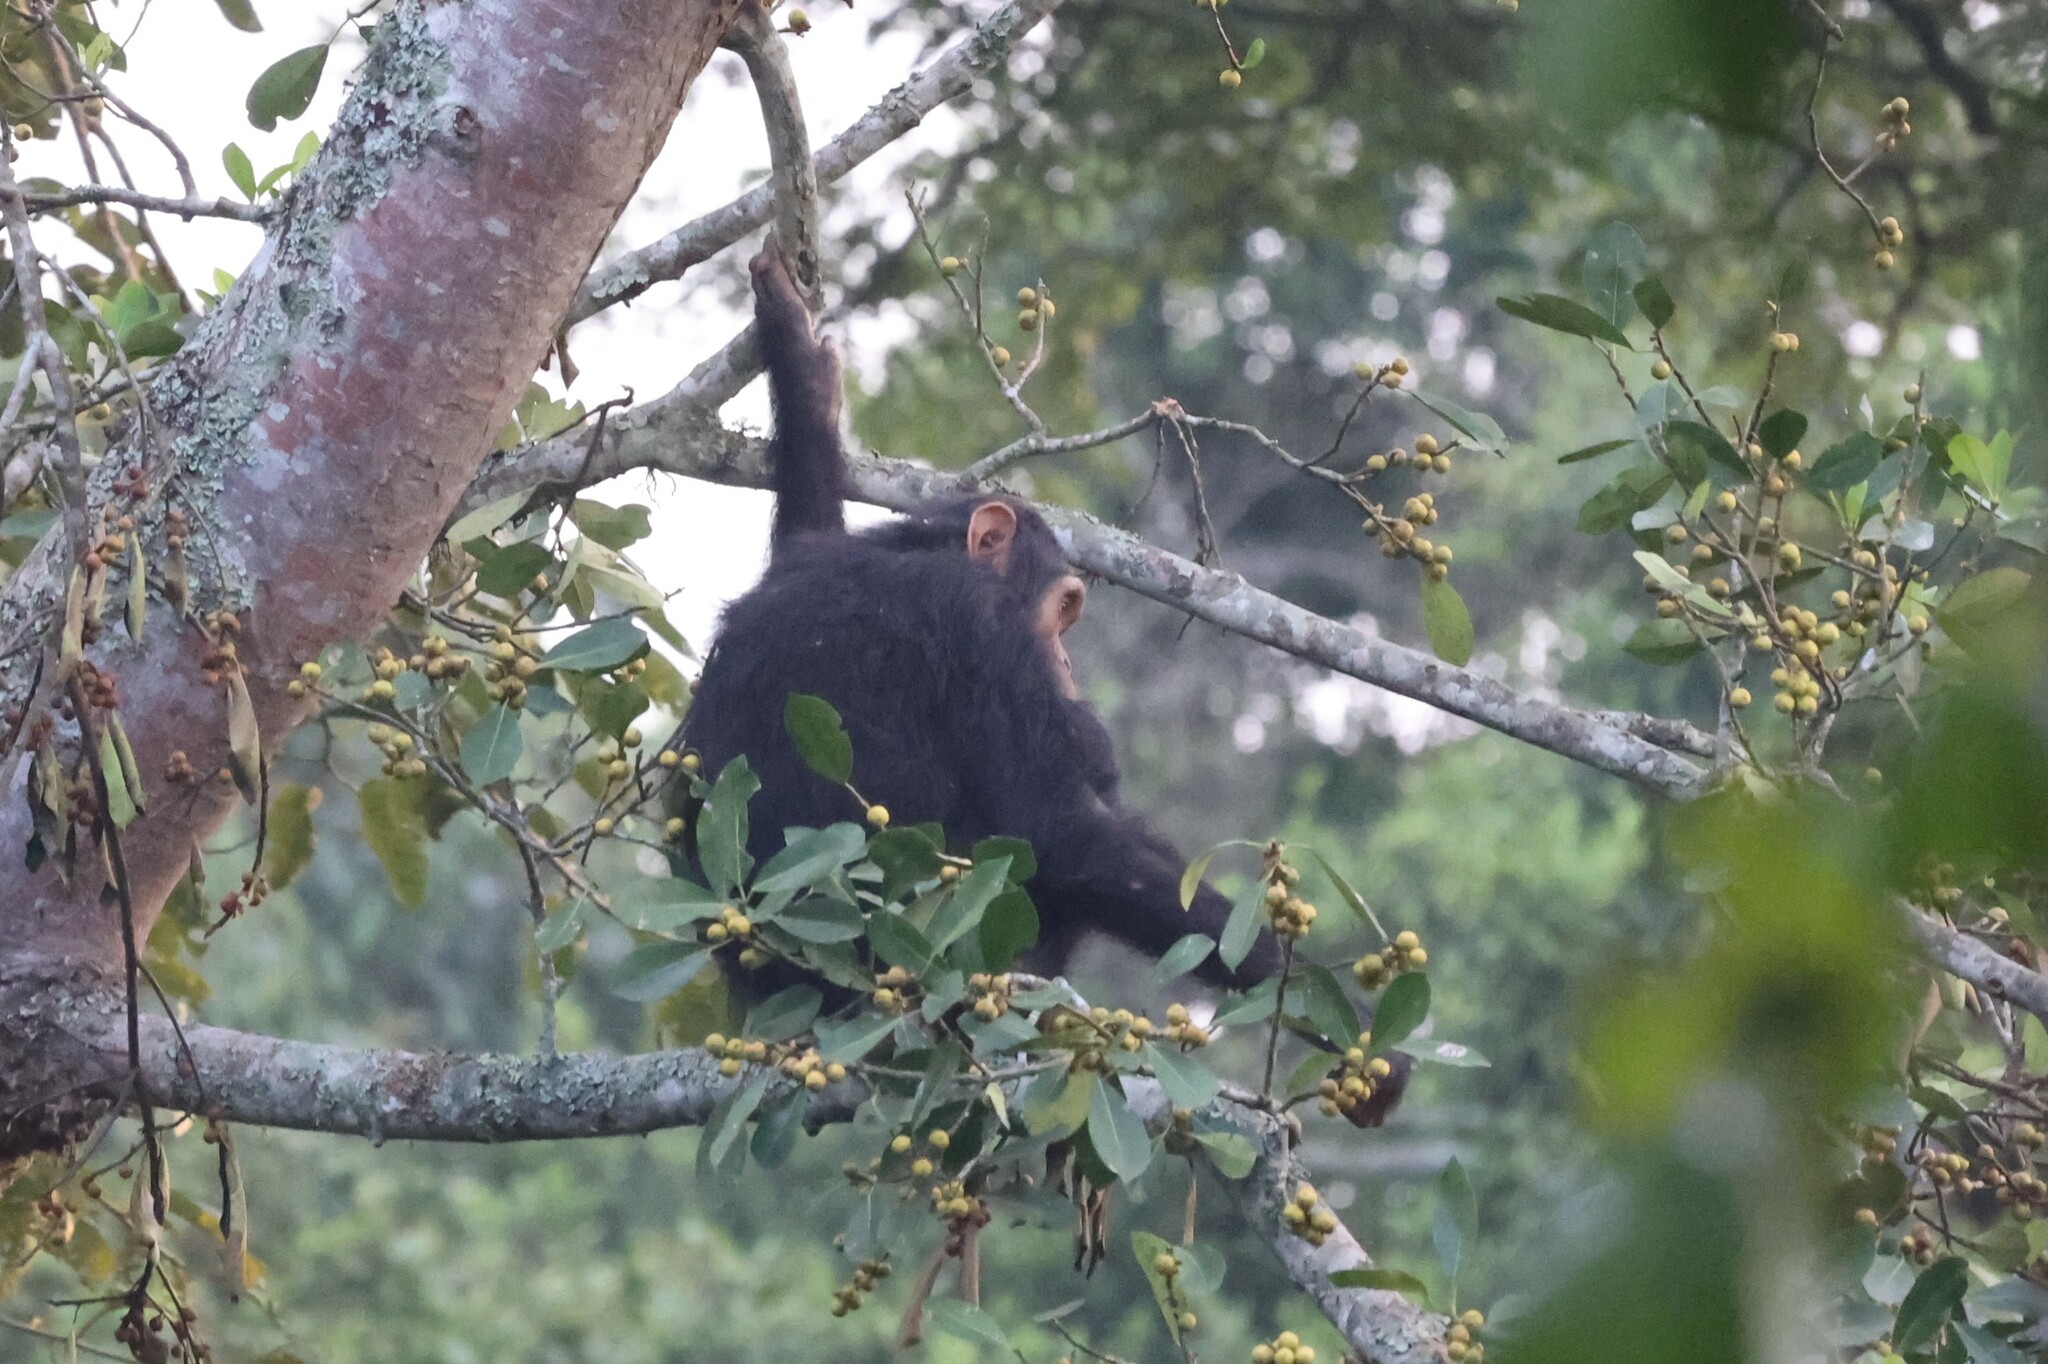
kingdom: Animalia
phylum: Chordata
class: Mammalia
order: Primates
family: Hominidae
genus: Pan
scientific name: Pan troglodytes
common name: Chimpanzee
